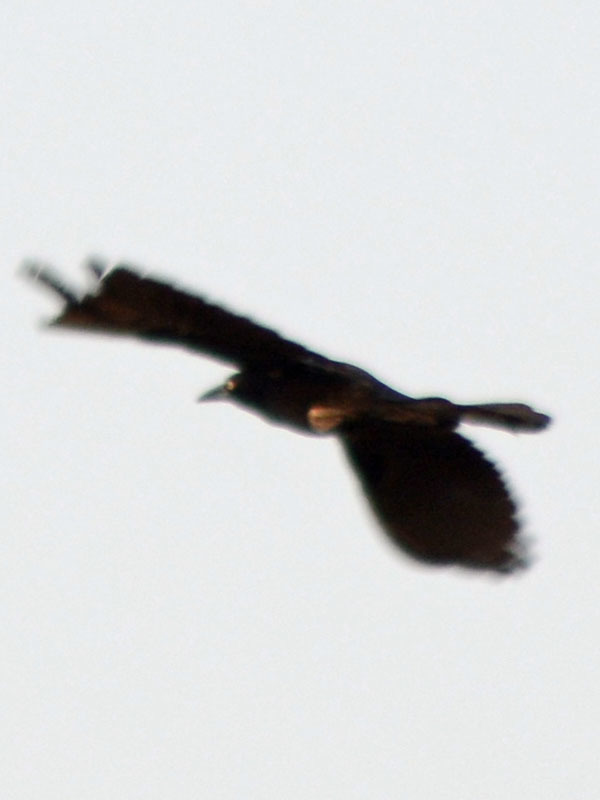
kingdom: Animalia
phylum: Chordata
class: Aves
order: Passeriformes
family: Icteridae
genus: Quiscalus
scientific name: Quiscalus mexicanus
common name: Great-tailed grackle
